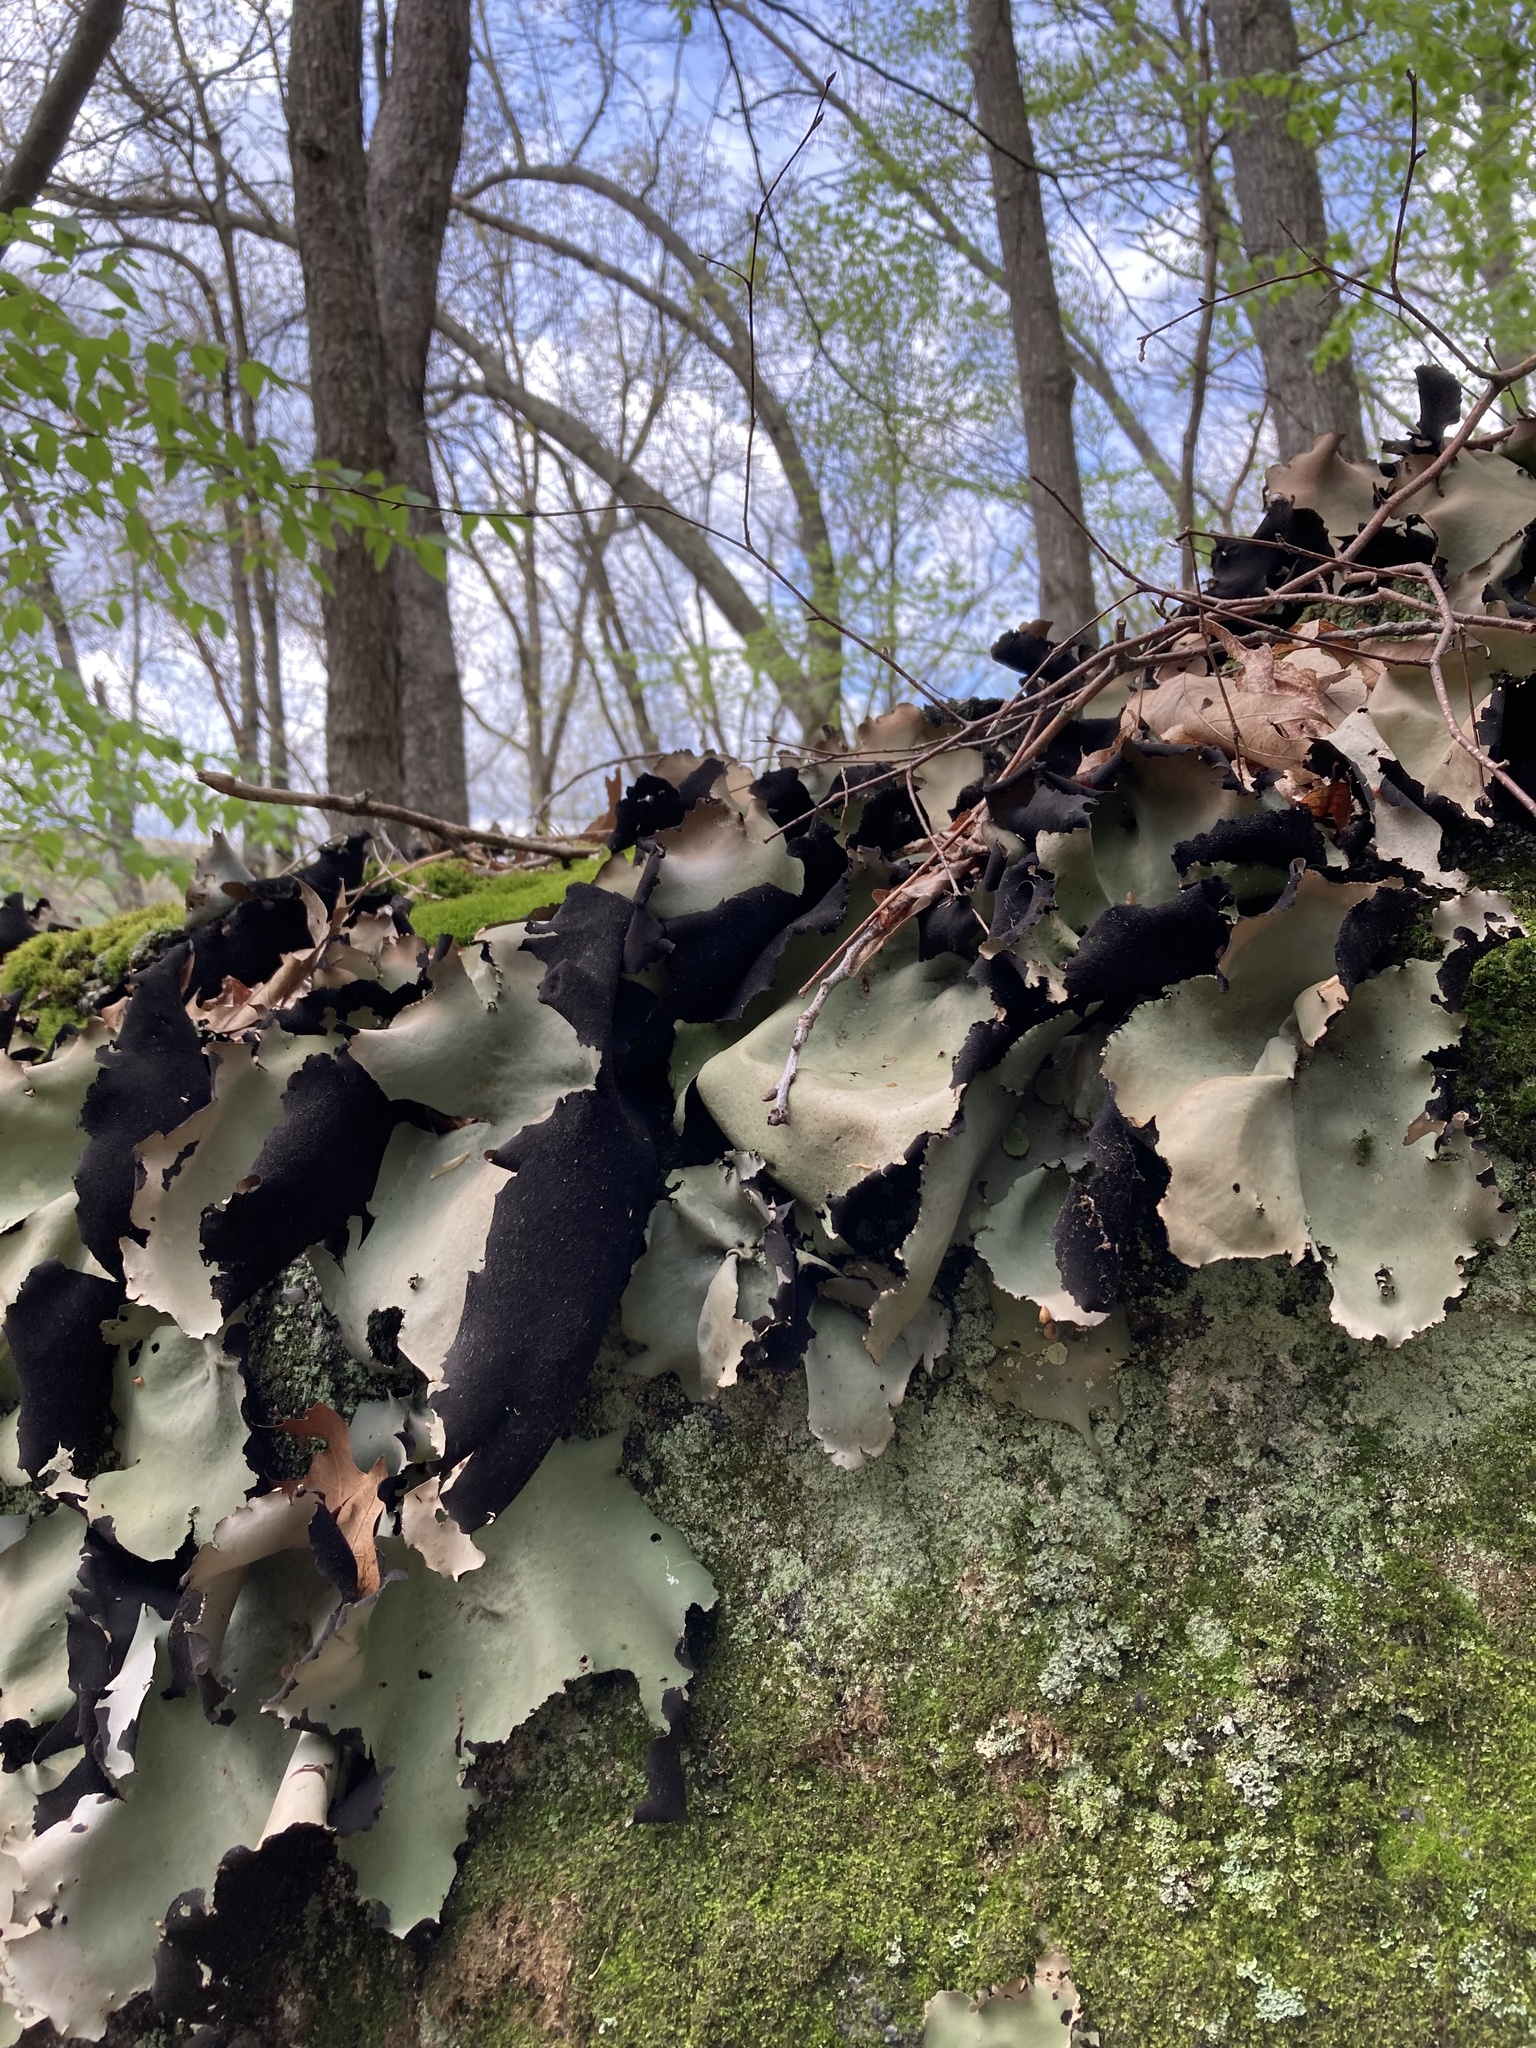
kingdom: Fungi
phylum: Ascomycota
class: Lecanoromycetes
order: Umbilicariales
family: Umbilicariaceae
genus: Umbilicaria
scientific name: Umbilicaria mammulata
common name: Smooth rock tripe
